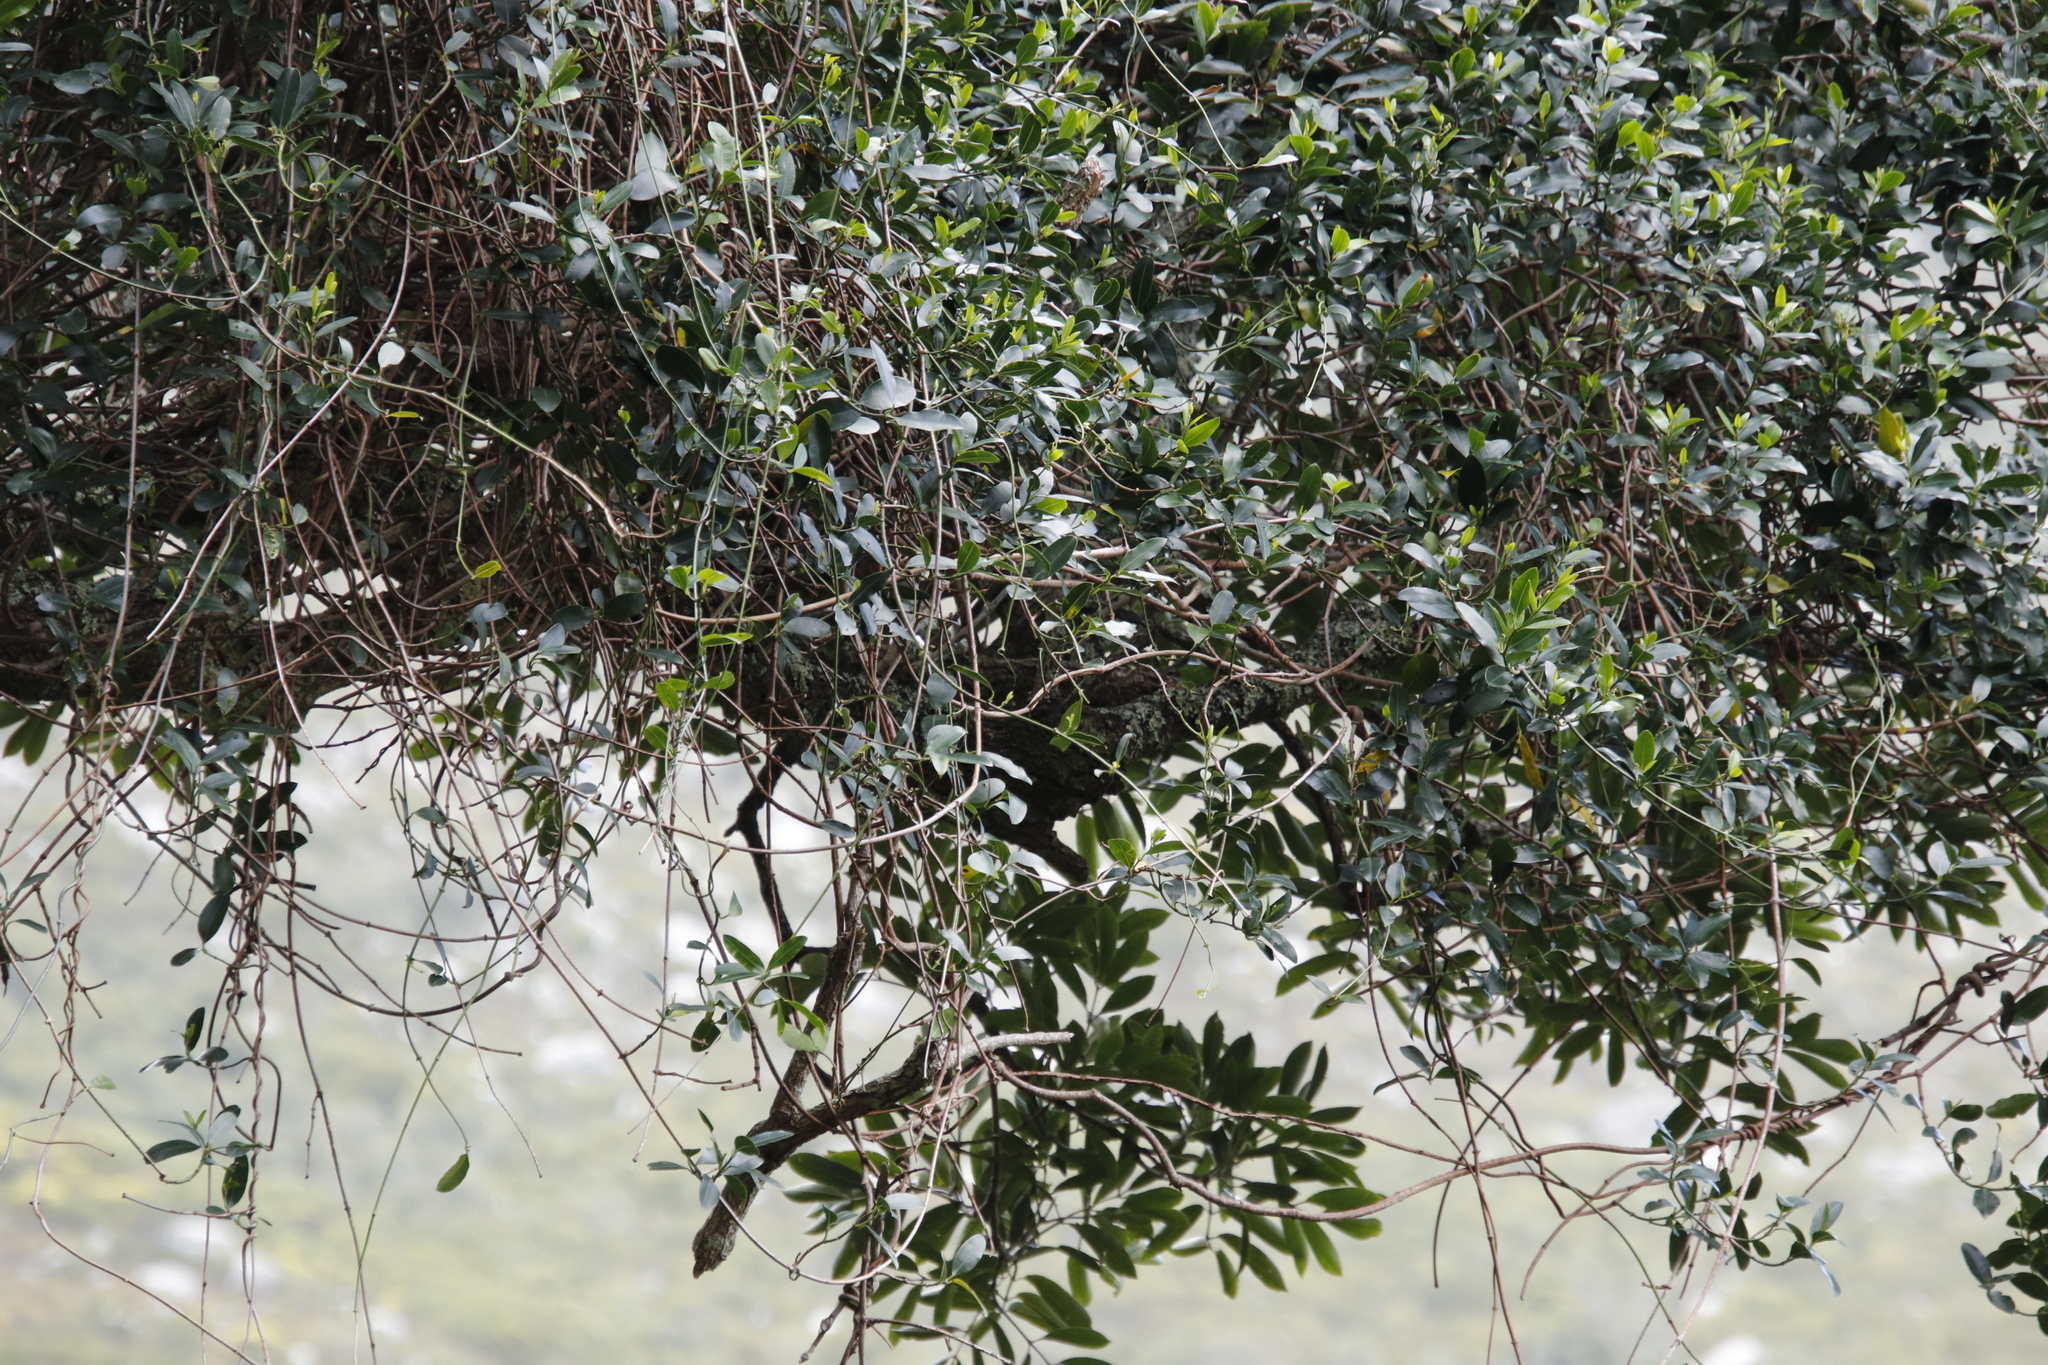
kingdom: Plantae
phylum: Tracheophyta
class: Magnoliopsida
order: Gentianales
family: Apocynaceae
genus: Secamone
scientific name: Secamone alpini
